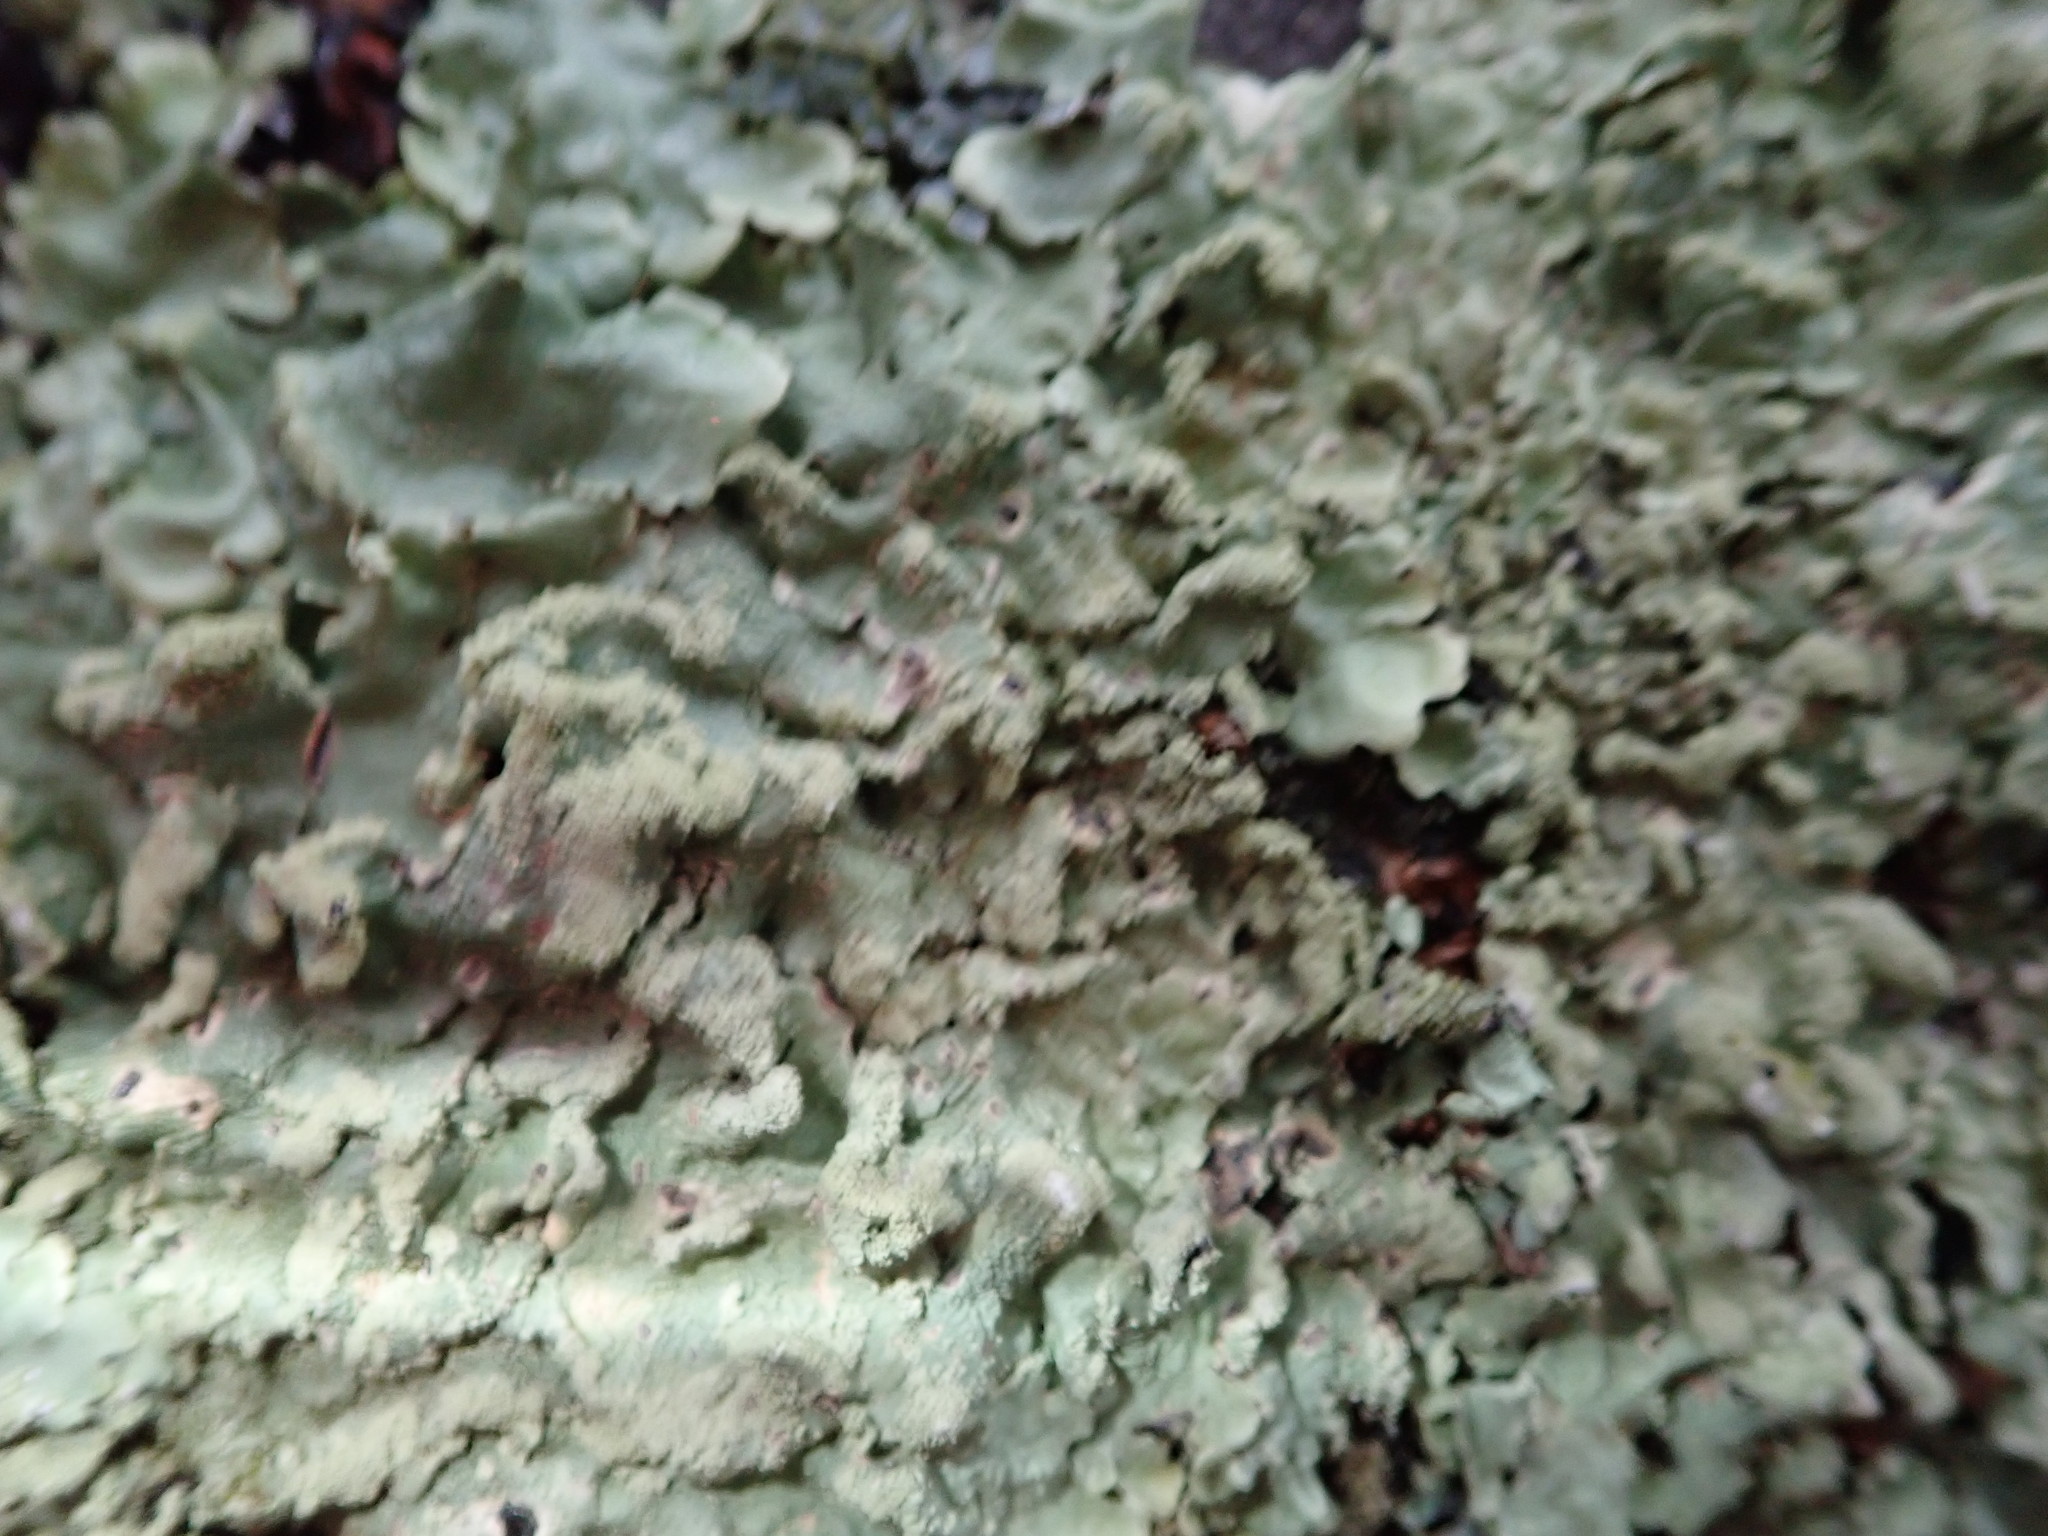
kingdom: Fungi
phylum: Ascomycota
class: Lecanoromycetes
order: Lecanorales
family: Parmeliaceae
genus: Flavoparmelia
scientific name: Flavoparmelia caperata
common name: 40-mile per hour lichen
